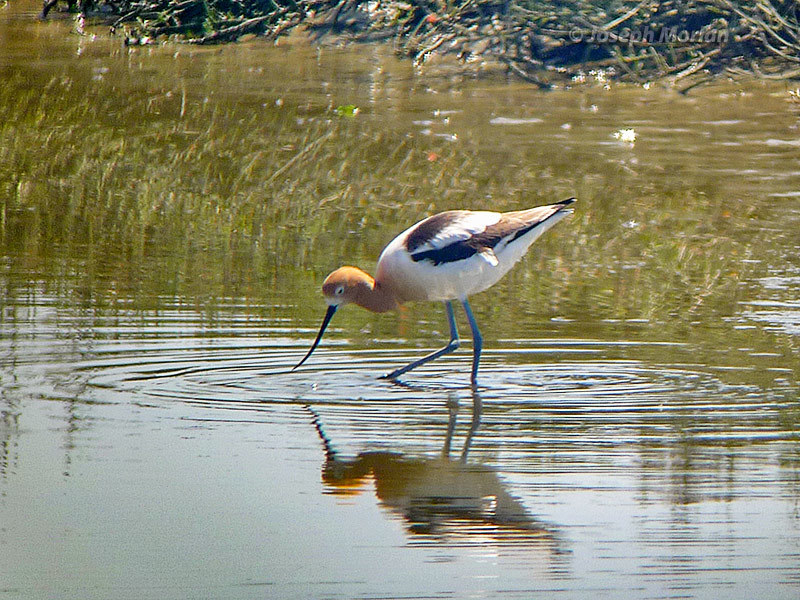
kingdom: Animalia
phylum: Chordata
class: Aves
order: Charadriiformes
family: Recurvirostridae
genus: Recurvirostra
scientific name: Recurvirostra americana
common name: American avocet
